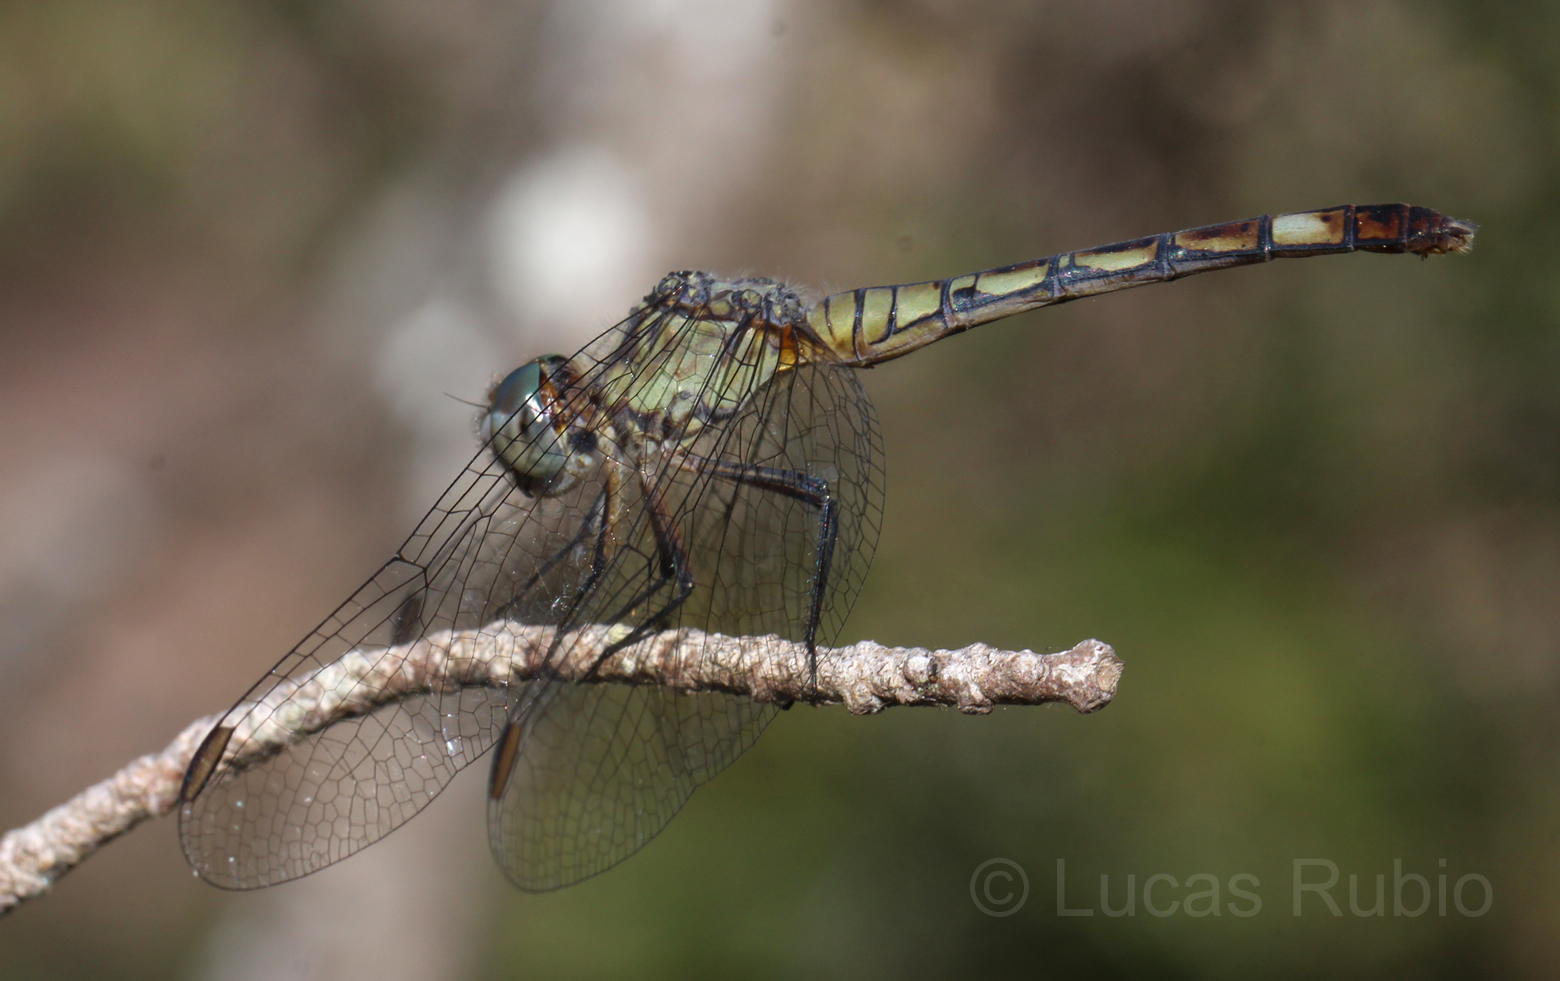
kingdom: Animalia
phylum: Arthropoda
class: Insecta
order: Odonata
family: Libellulidae
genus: Micrathyria
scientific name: Micrathyria longifasciata
